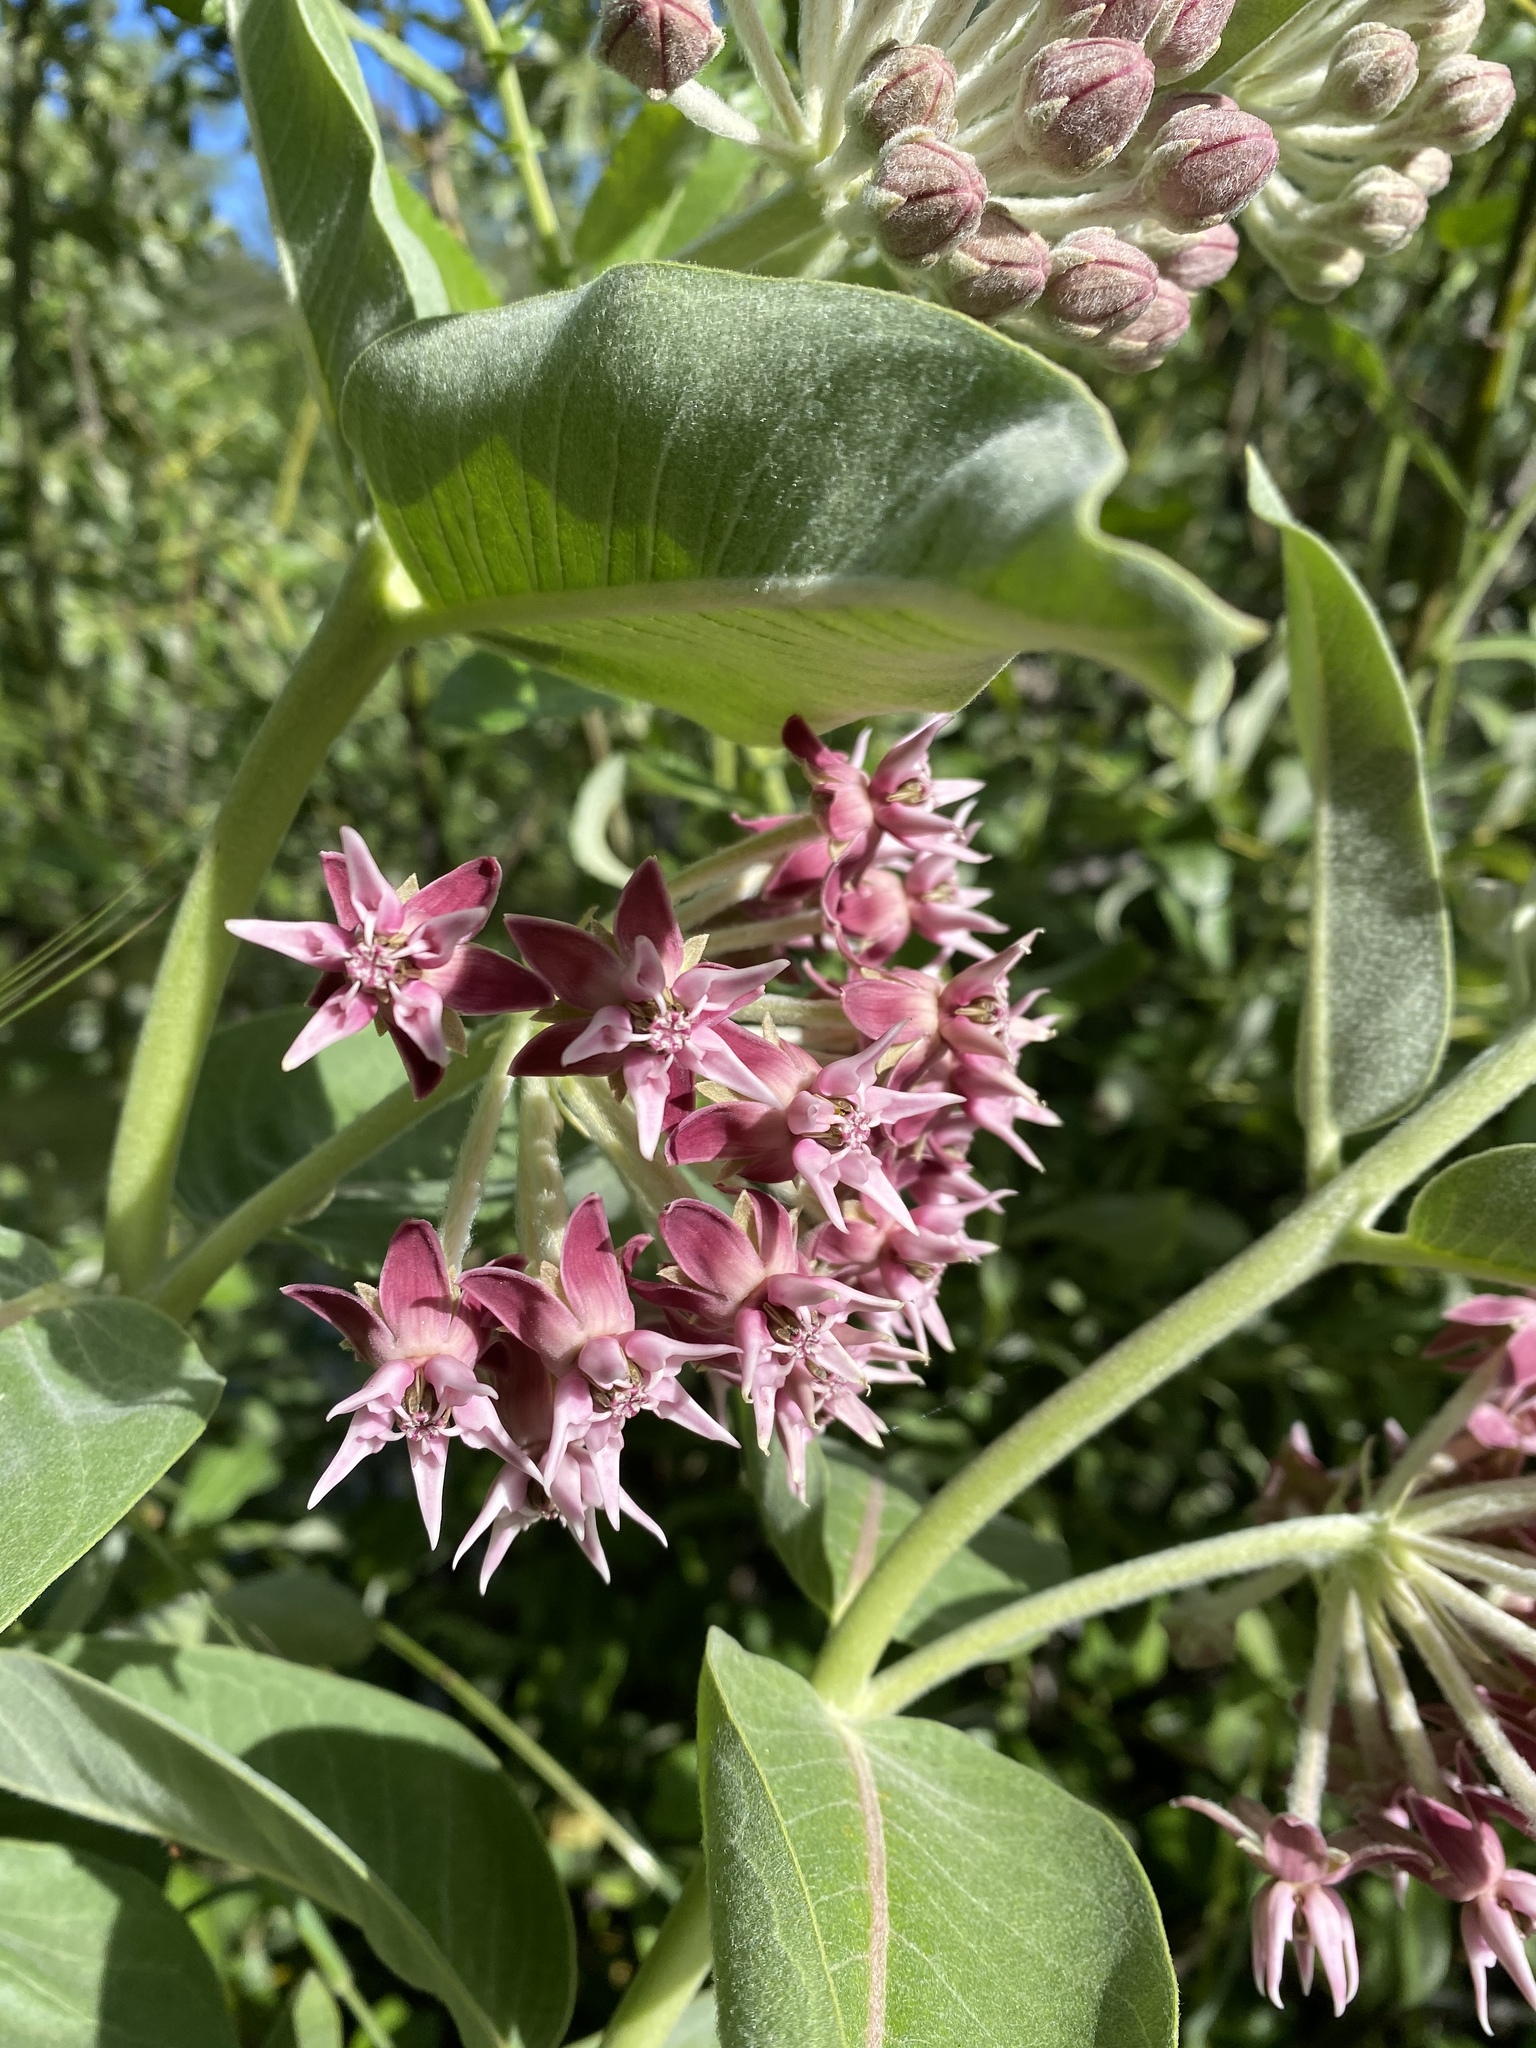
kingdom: Plantae
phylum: Tracheophyta
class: Magnoliopsida
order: Gentianales
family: Apocynaceae
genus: Asclepias
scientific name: Asclepias speciosa
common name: Showy milkweed
